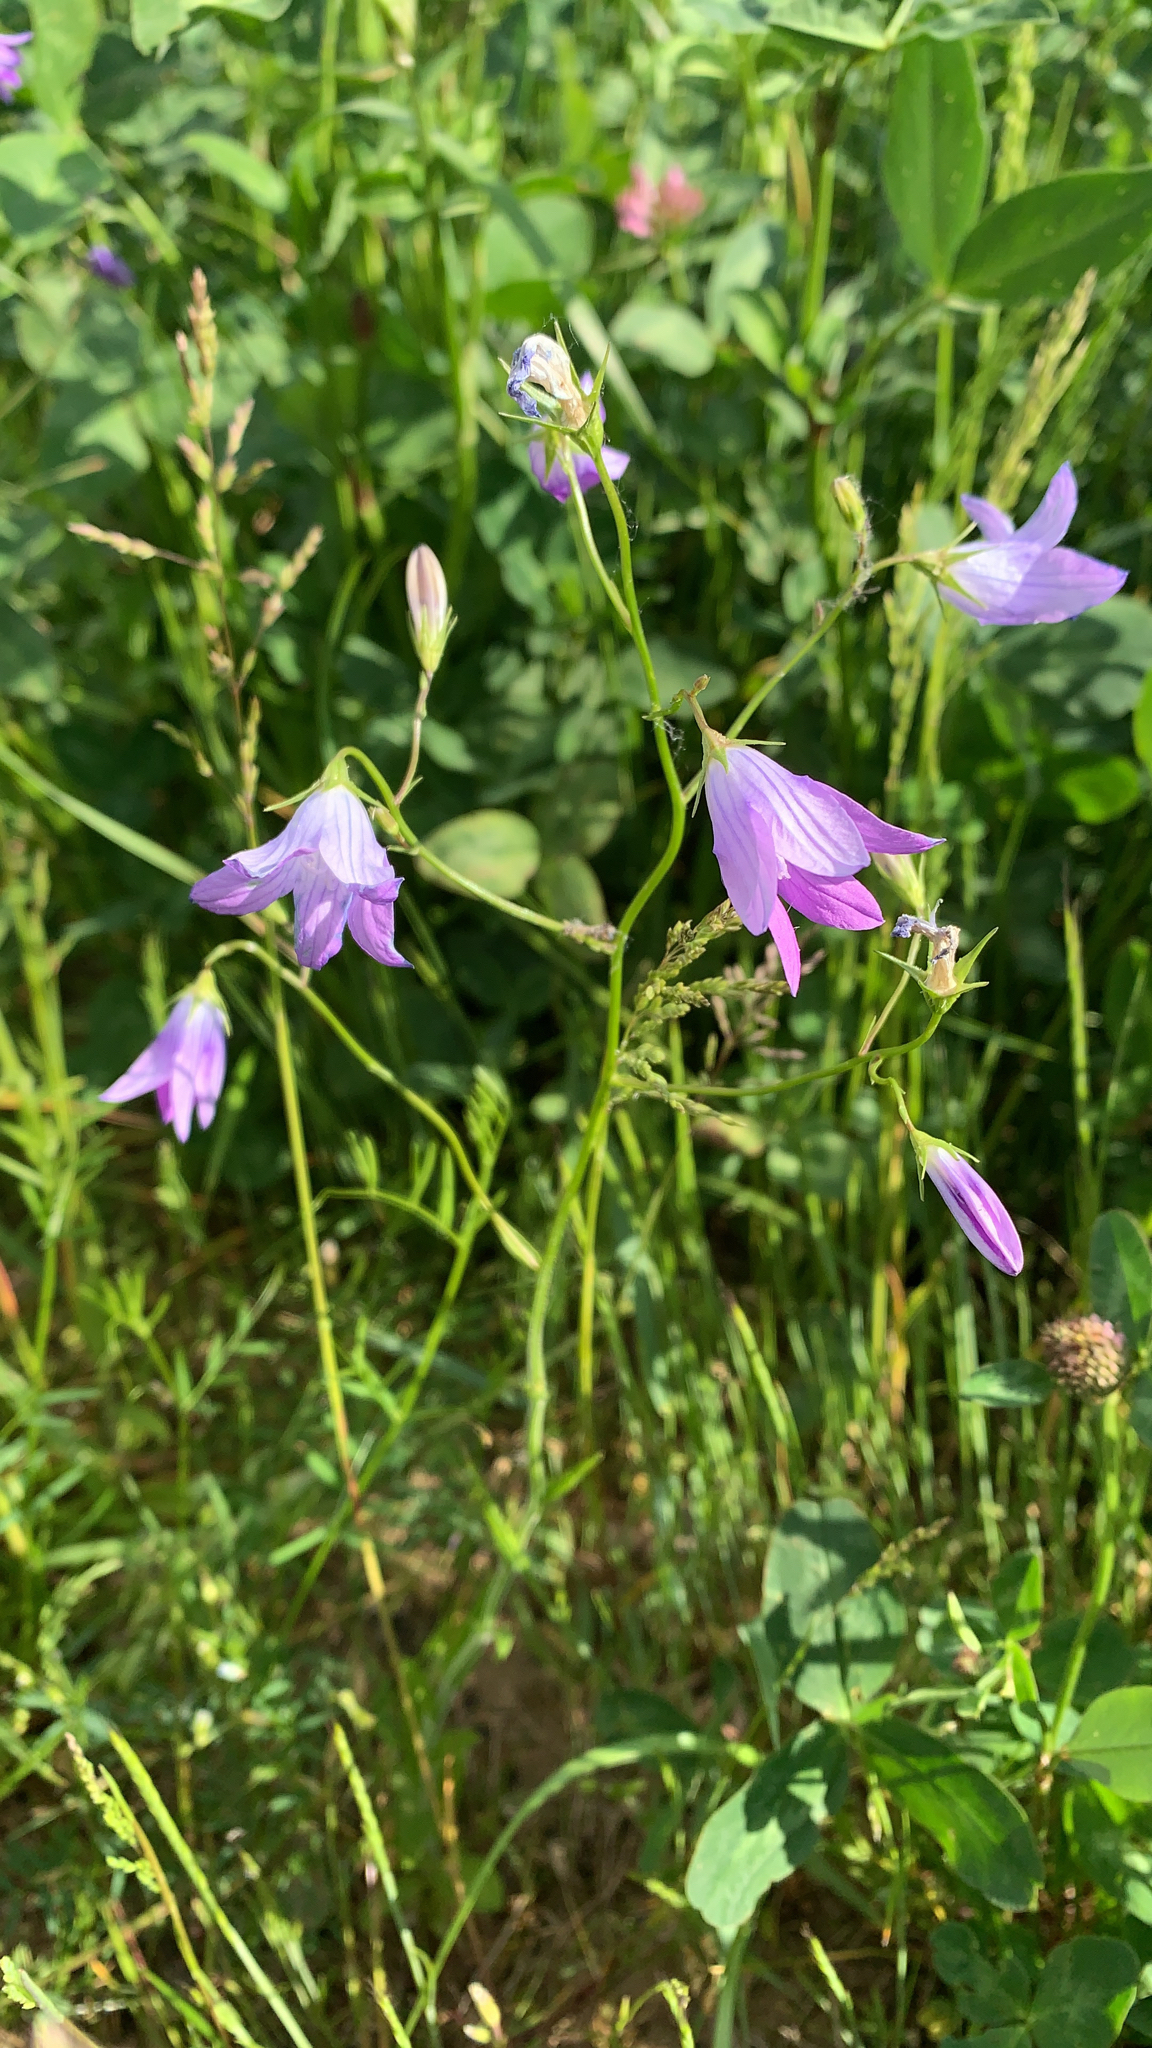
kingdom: Plantae
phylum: Tracheophyta
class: Magnoliopsida
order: Asterales
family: Campanulaceae
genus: Campanula
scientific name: Campanula patula
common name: Spreading bellflower
